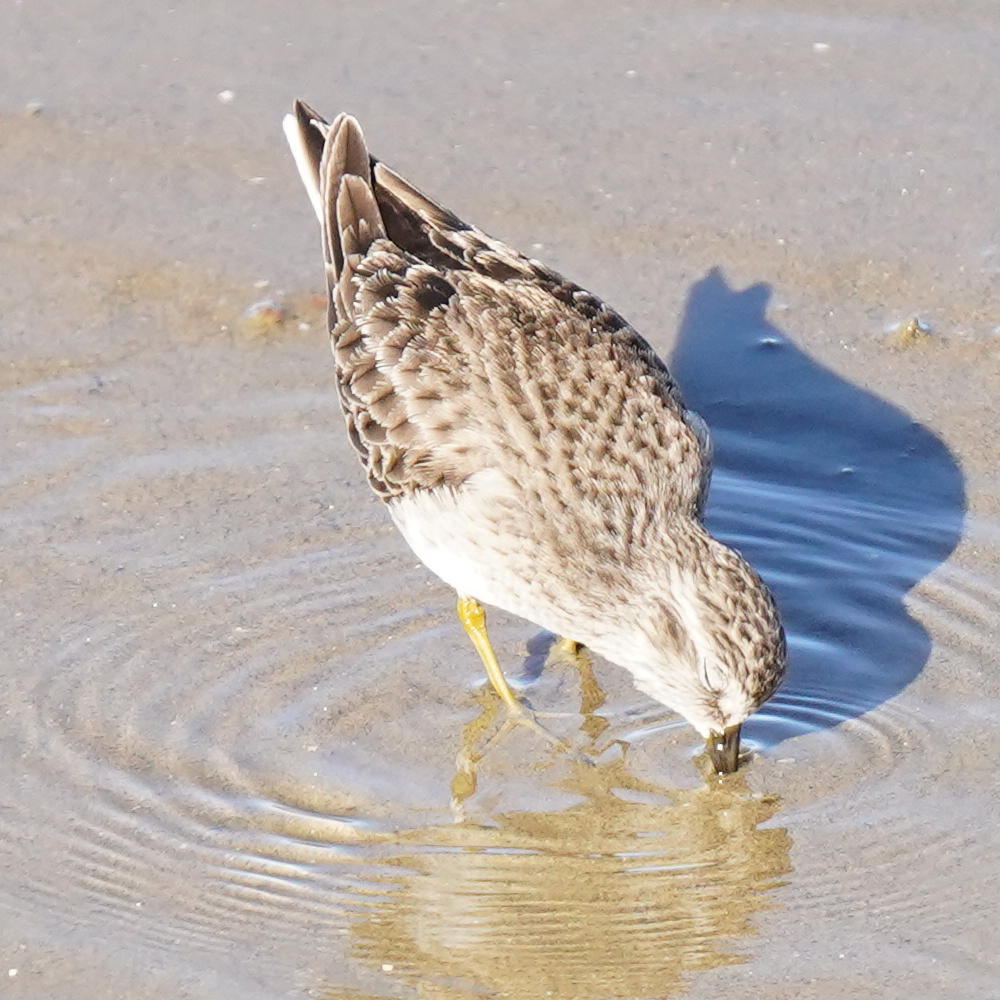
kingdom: Animalia
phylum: Chordata
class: Aves
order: Charadriiformes
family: Scolopacidae
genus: Calidris
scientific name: Calidris minutilla
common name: Least sandpiper
